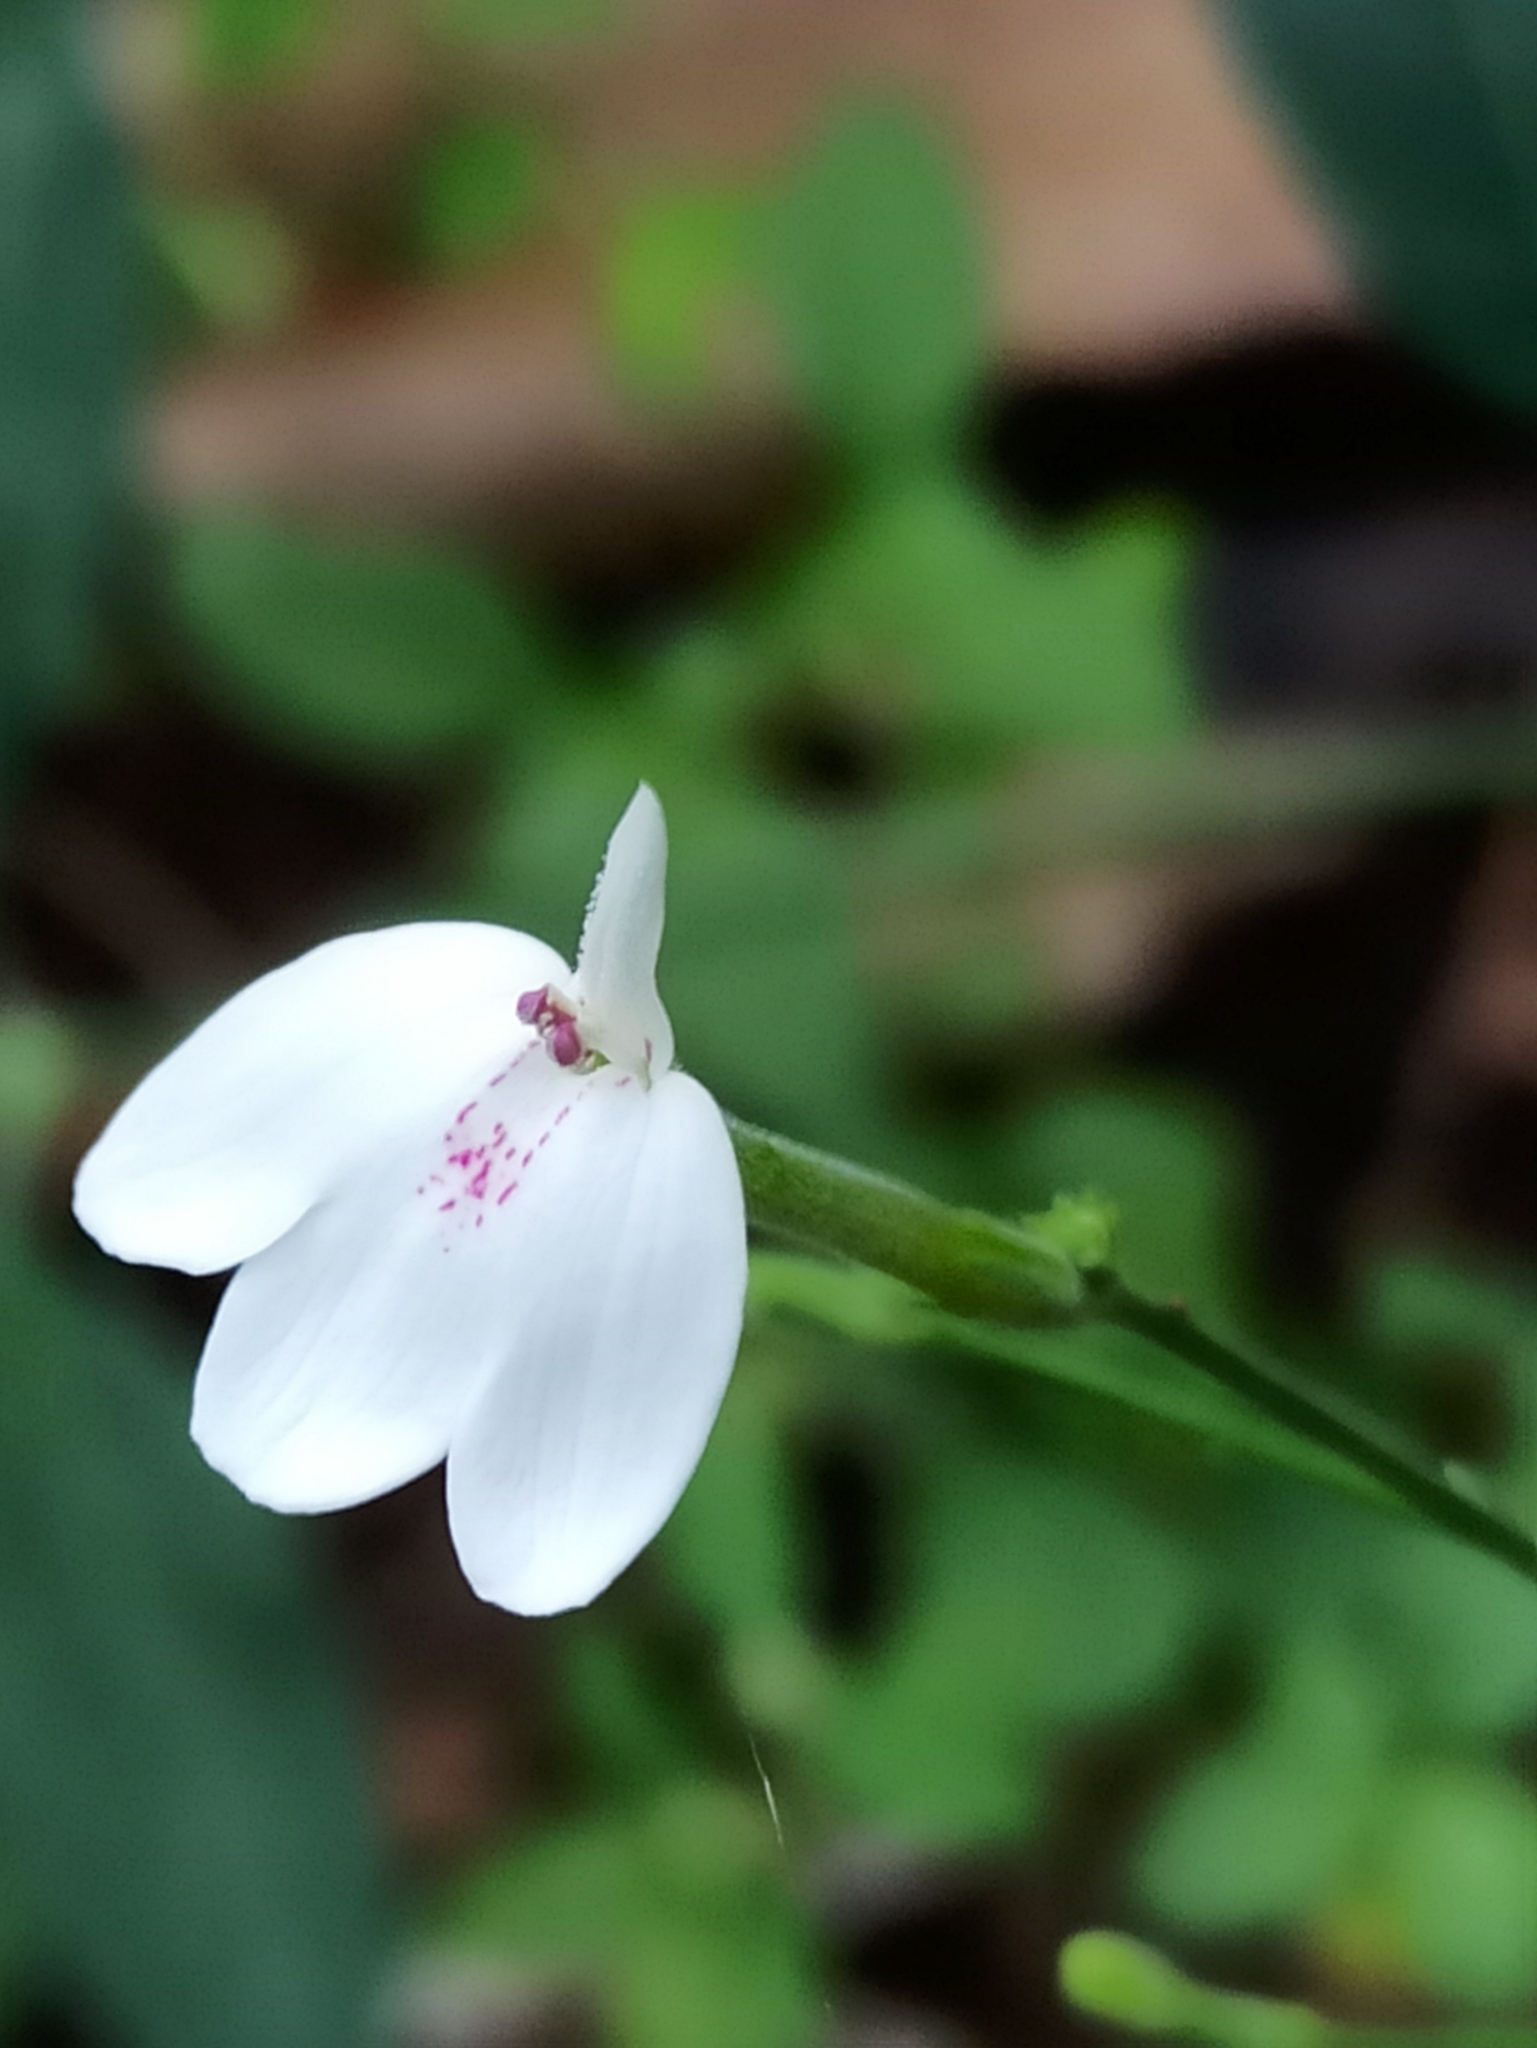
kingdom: Plantae
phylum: Tracheophyta
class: Magnoliopsida
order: Lamiales
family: Acanthaceae
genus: Rhinacanthus
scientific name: Rhinacanthus nasutus
